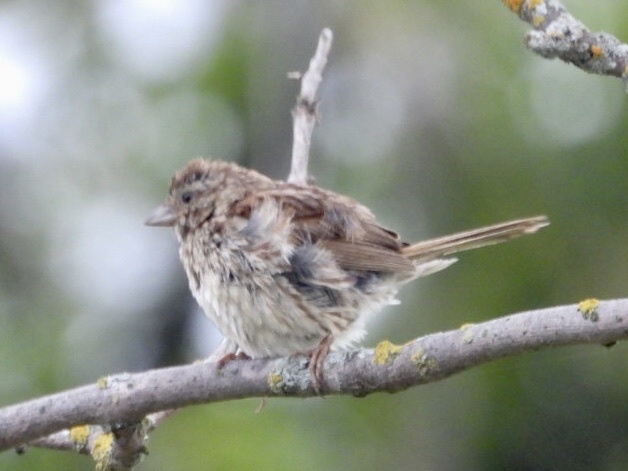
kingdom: Animalia
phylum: Chordata
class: Aves
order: Passeriformes
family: Passerellidae
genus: Melospiza
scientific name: Melospiza melodia
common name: Song sparrow
